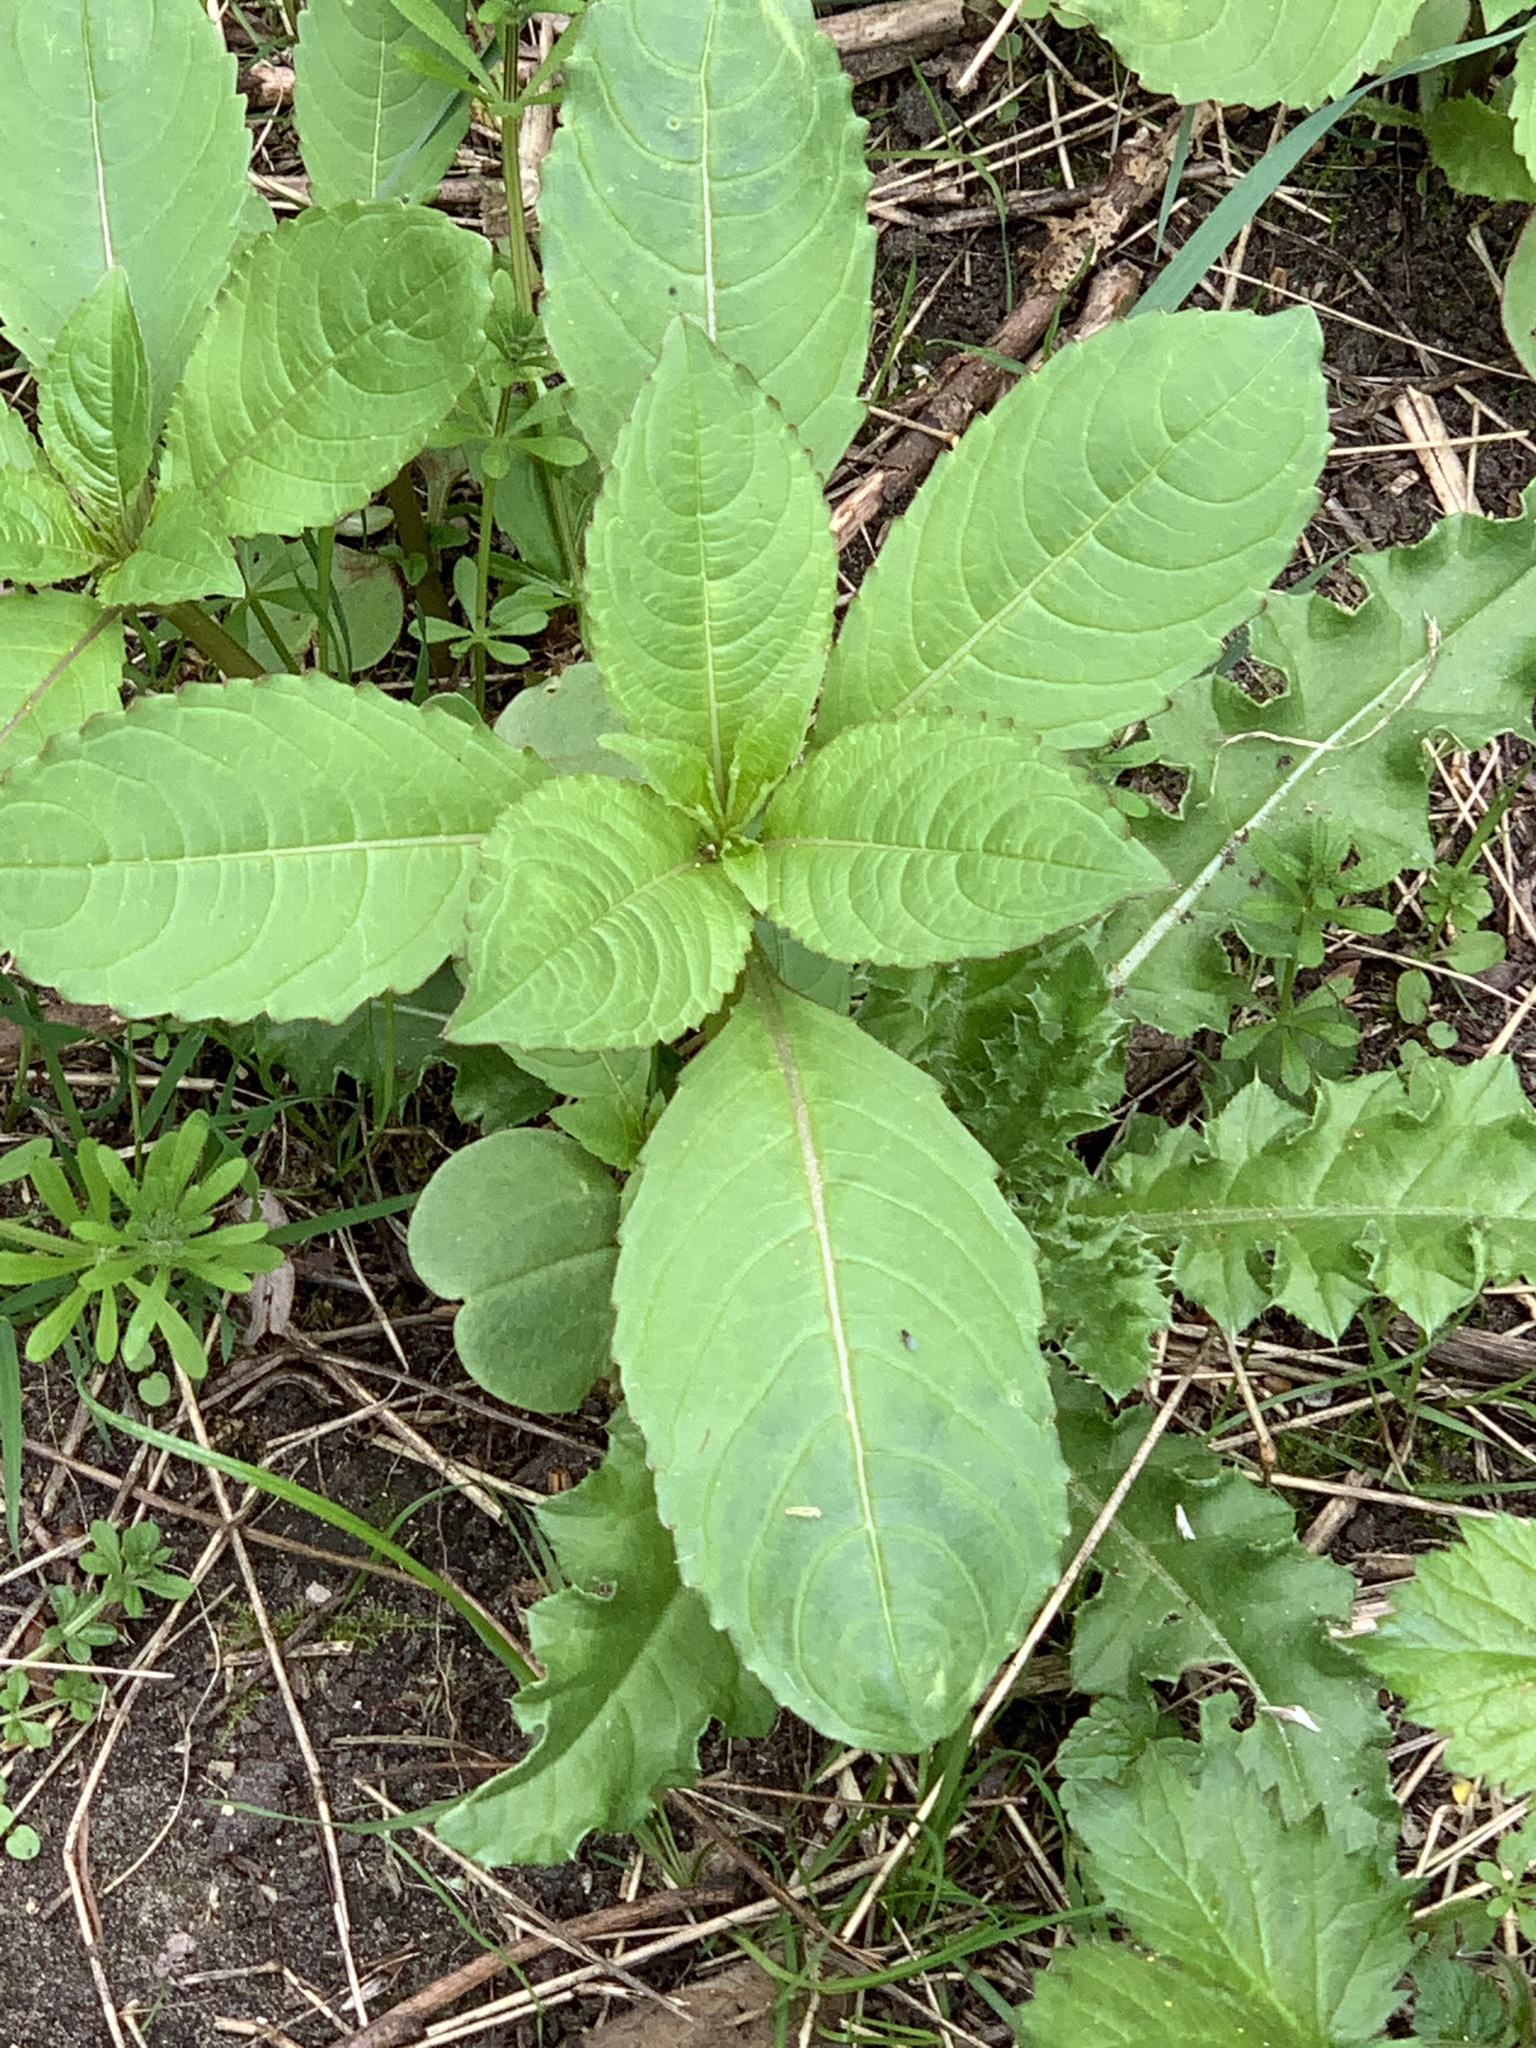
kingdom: Plantae
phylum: Tracheophyta
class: Magnoliopsida
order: Ericales
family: Balsaminaceae
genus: Impatiens
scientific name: Impatiens glandulifera
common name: Himalayan balsam
